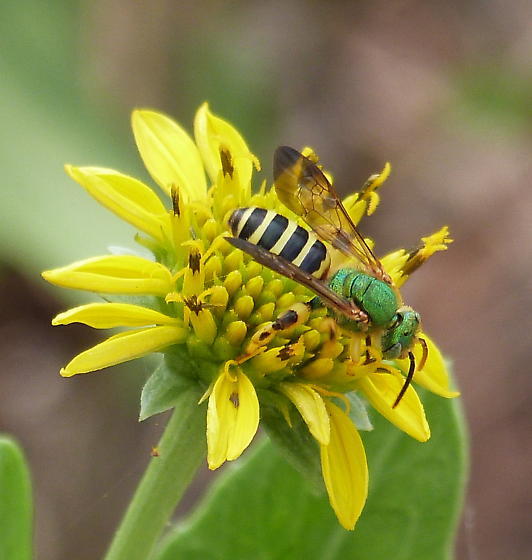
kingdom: Animalia
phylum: Arthropoda
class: Insecta
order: Hymenoptera
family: Halictidae
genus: Agapostemon
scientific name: Agapostemon splendens
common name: Brown-winged striped sweat bee
